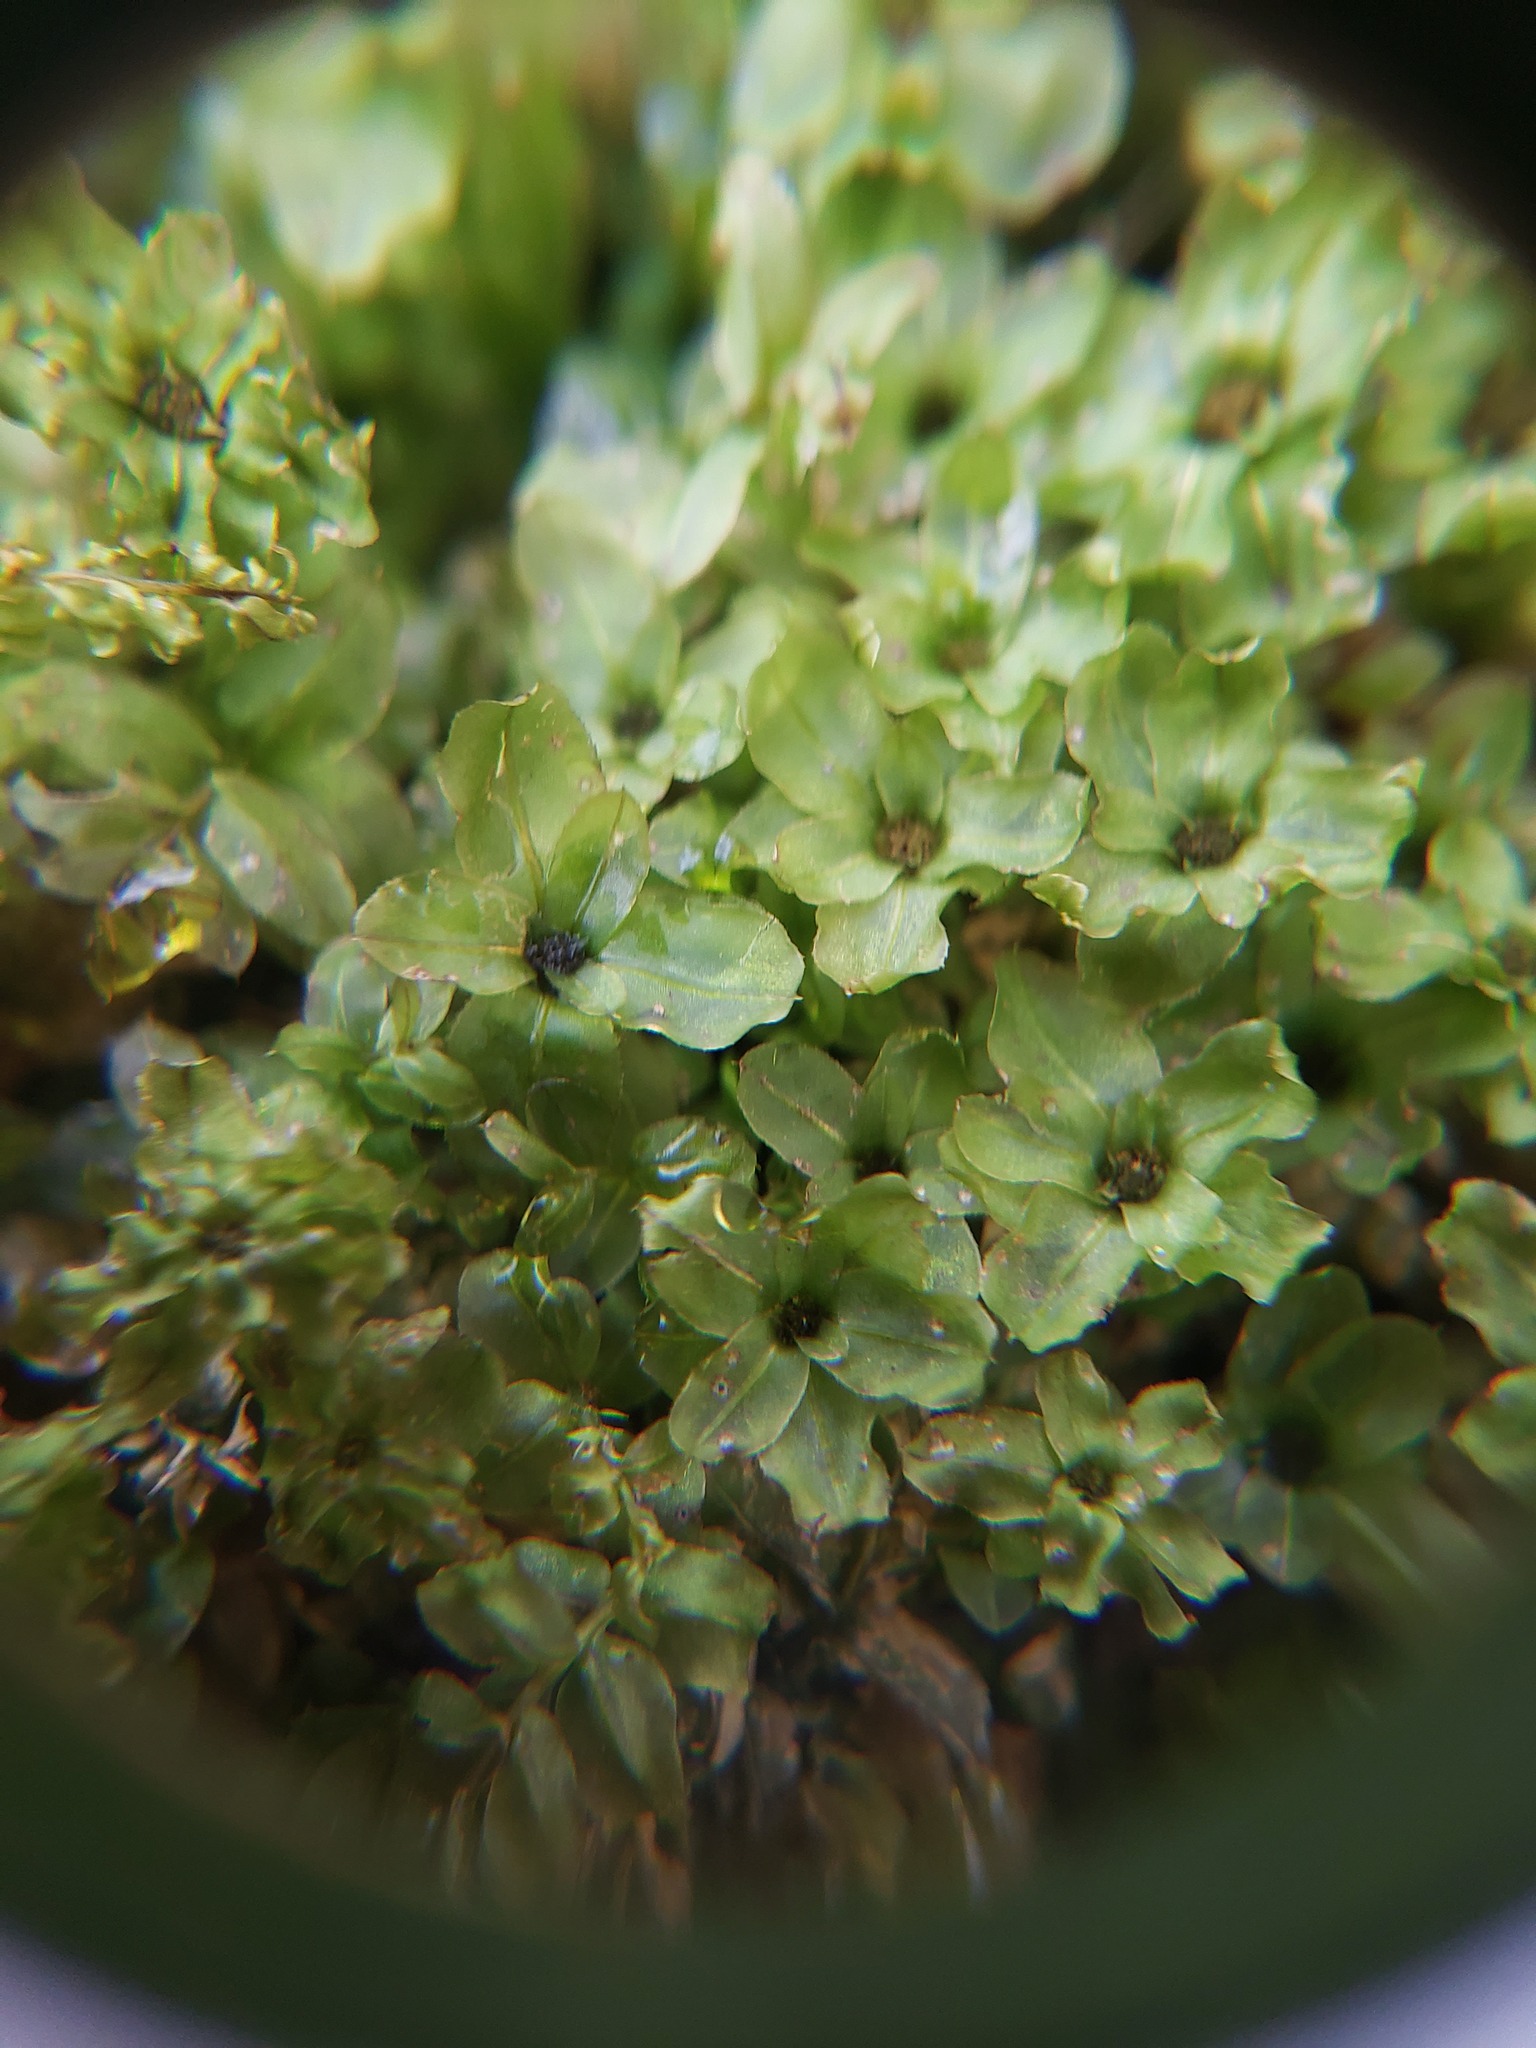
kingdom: Plantae
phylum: Bryophyta
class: Bryopsida
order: Bryales
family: Mniaceae
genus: Plagiomnium
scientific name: Plagiomnium ciliare
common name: Toothed leafy moss
